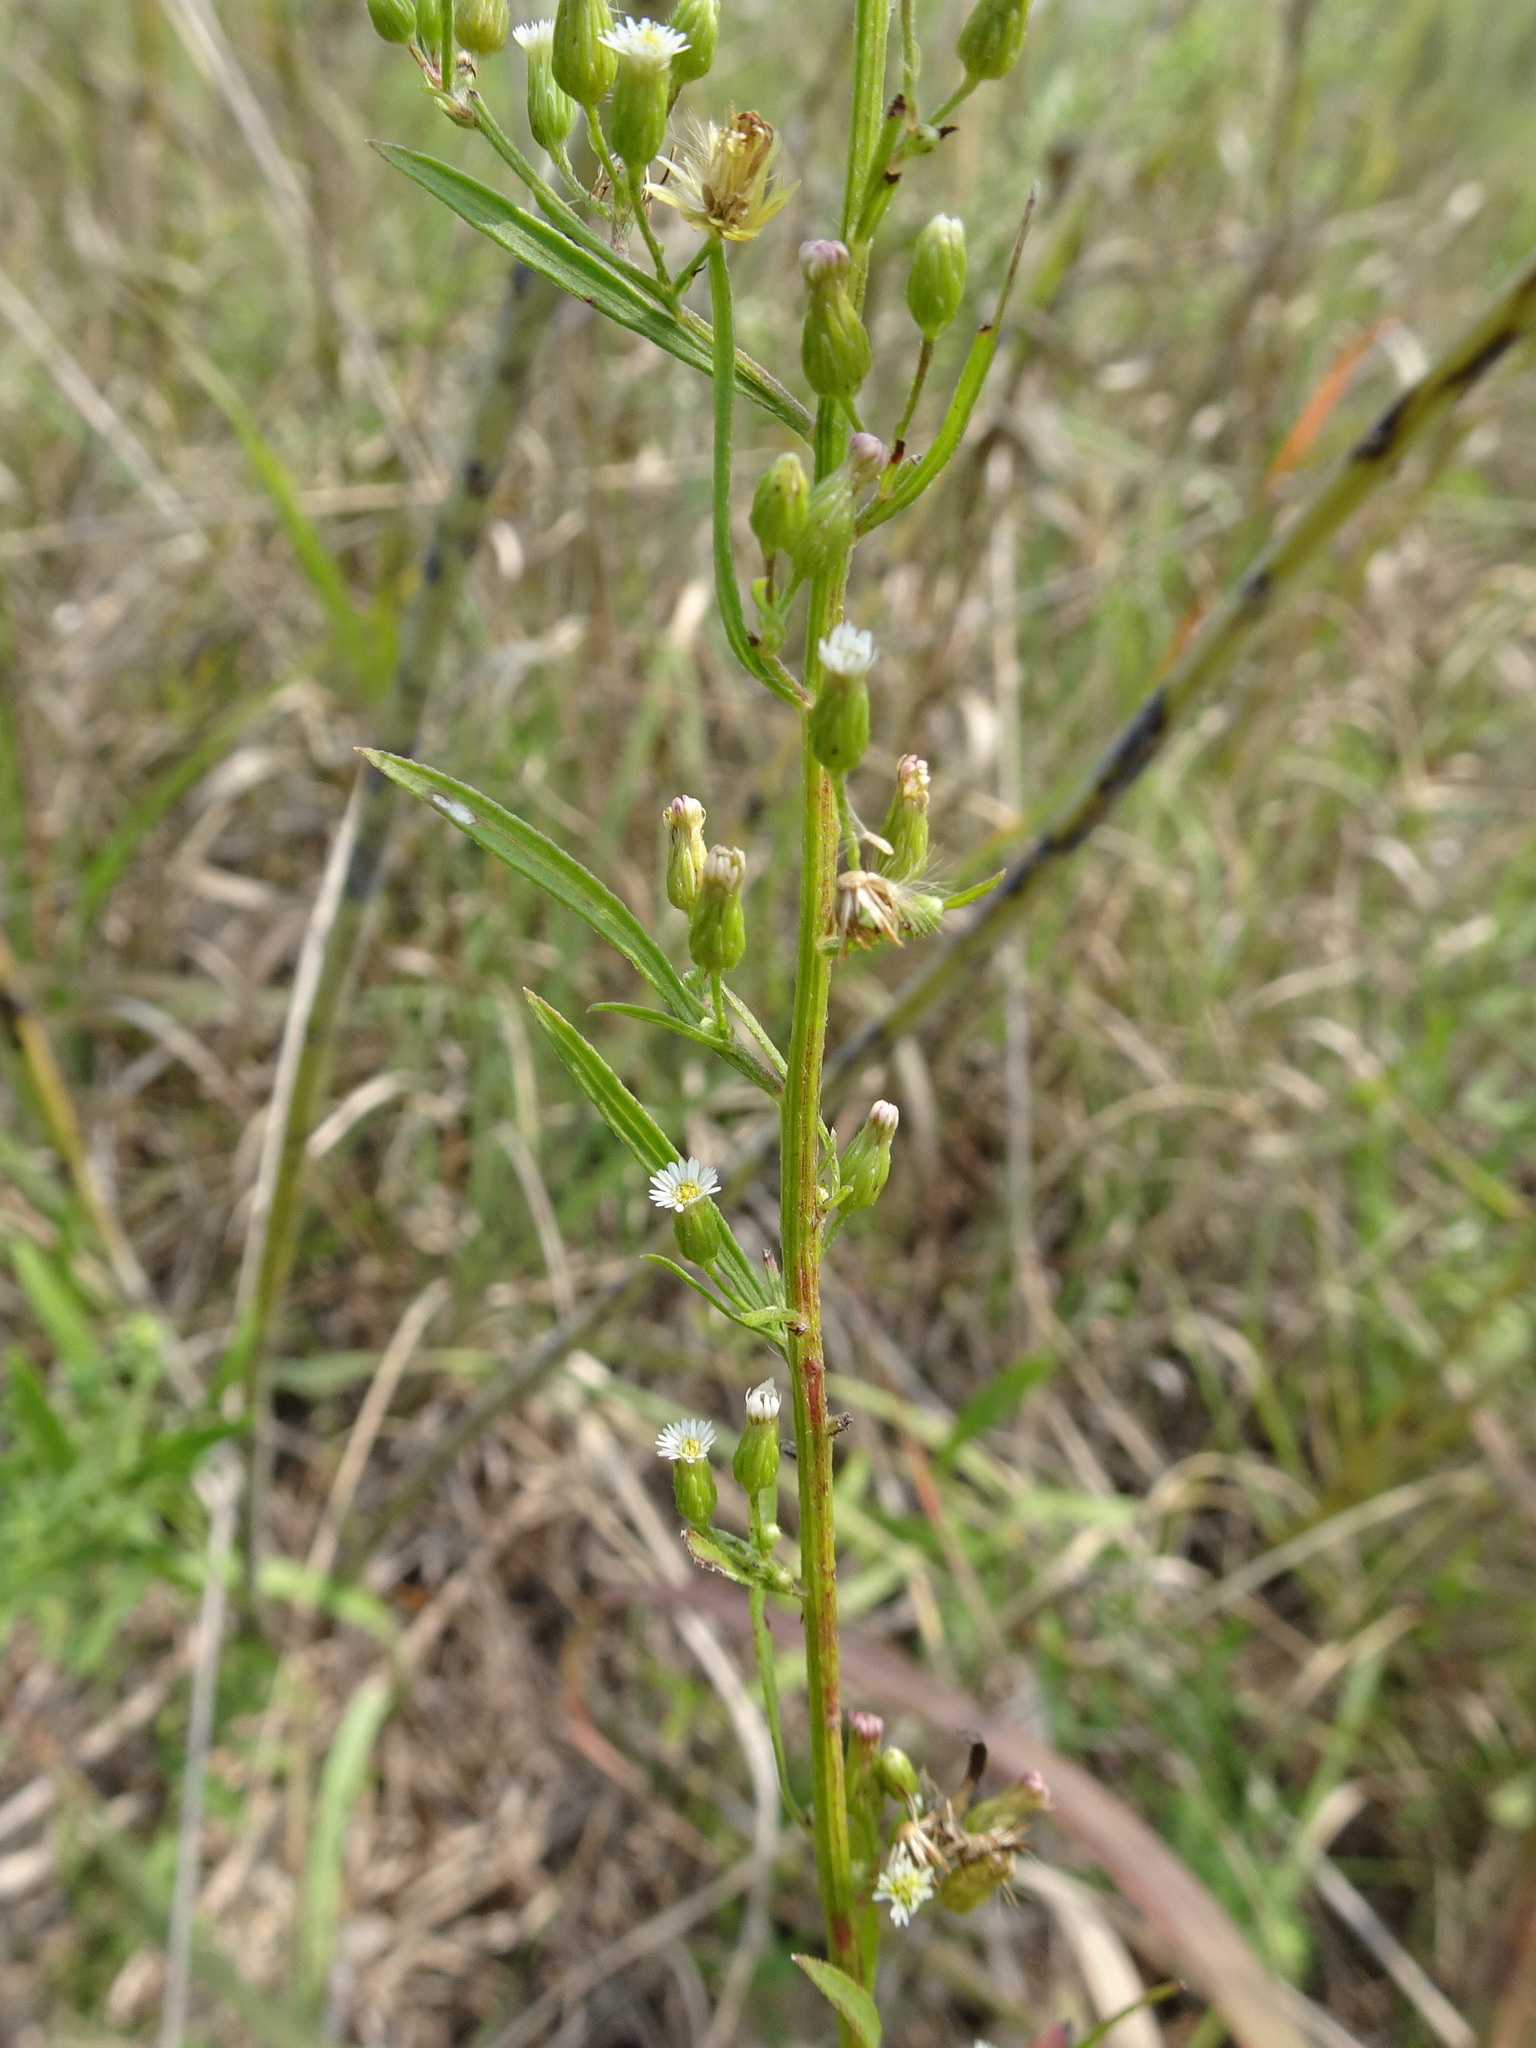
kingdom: Plantae
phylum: Tracheophyta
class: Magnoliopsida
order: Asterales
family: Asteraceae
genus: Erigeron
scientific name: Erigeron canadensis
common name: Canadian fleabane
